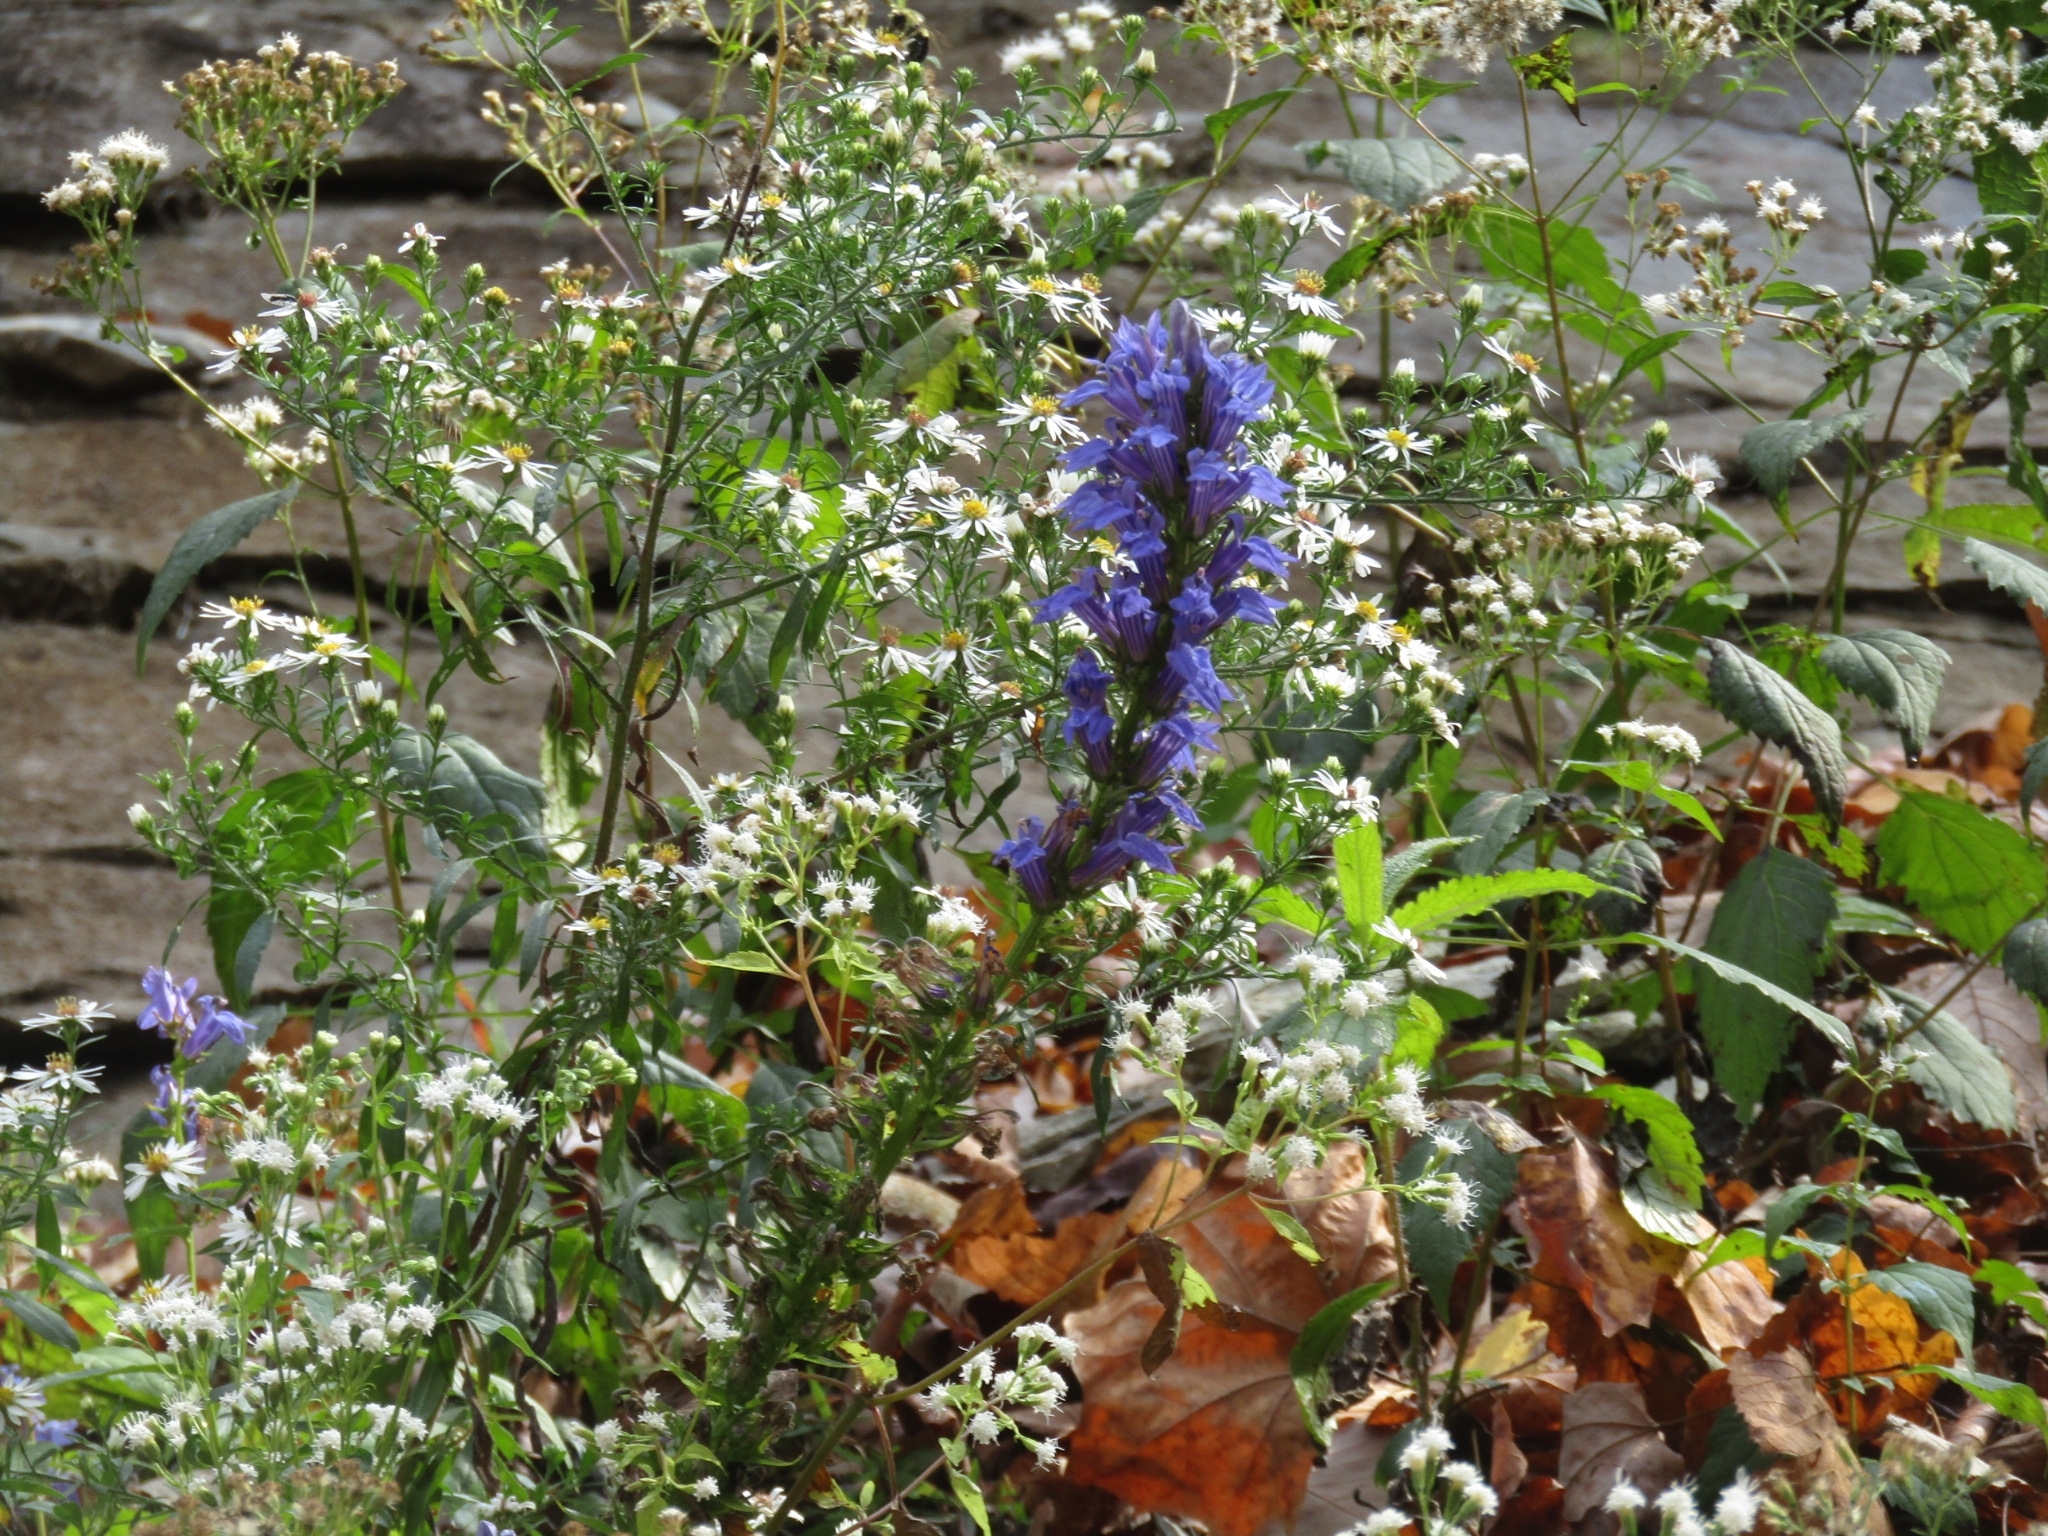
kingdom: Plantae
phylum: Tracheophyta
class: Magnoliopsida
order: Asterales
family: Campanulaceae
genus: Lobelia
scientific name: Lobelia siphilitica
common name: Great lobelia
